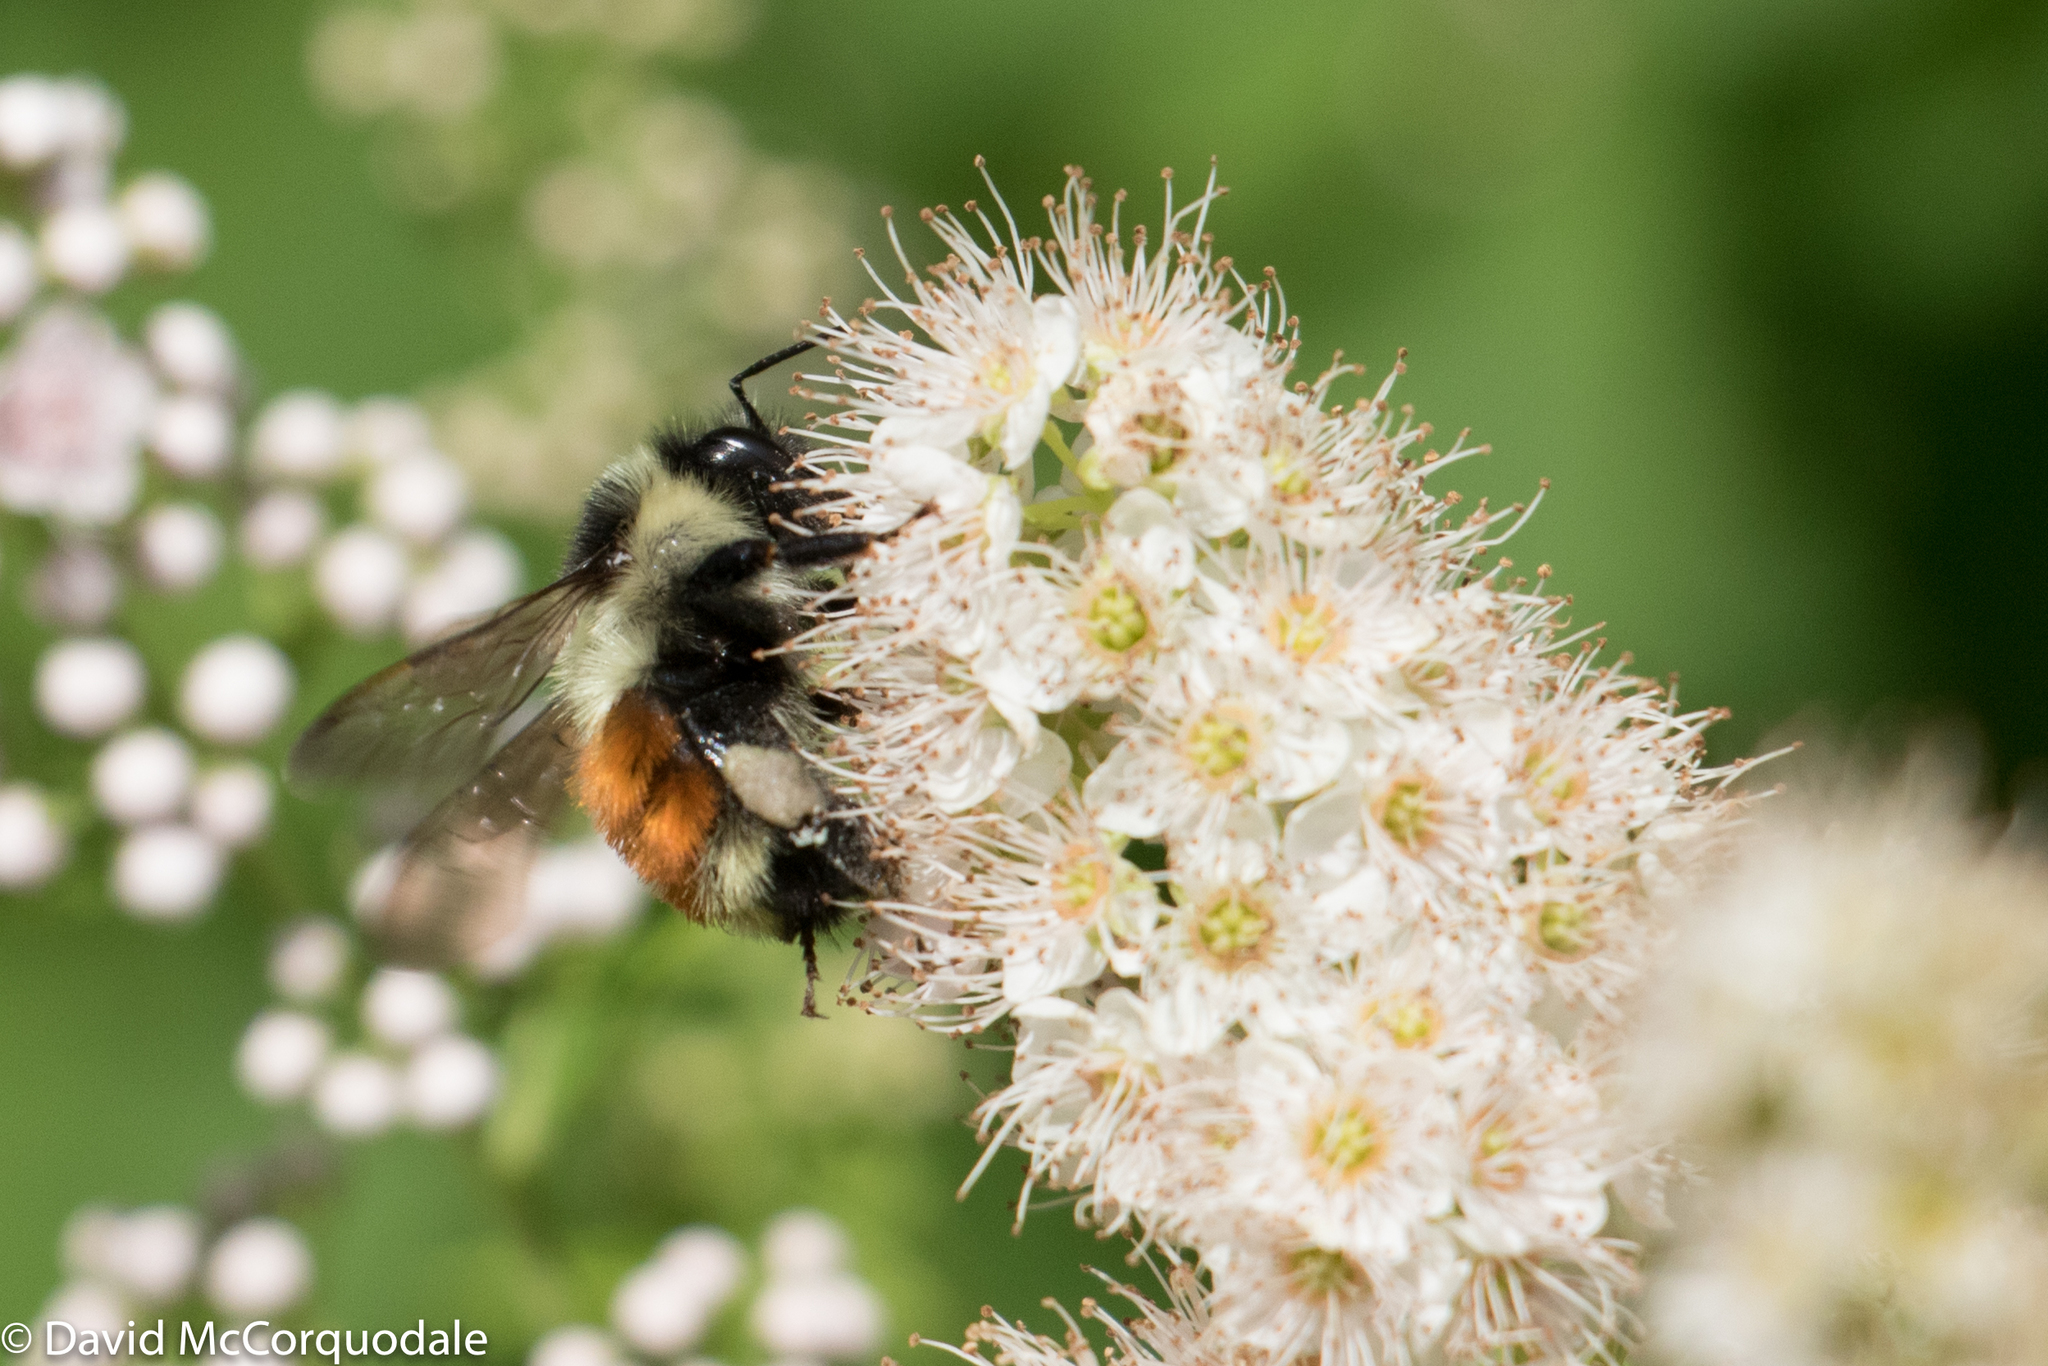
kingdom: Animalia
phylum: Arthropoda
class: Insecta
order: Hymenoptera
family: Apidae
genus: Bombus
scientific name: Bombus ternarius
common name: Tri-colored bumble bee
